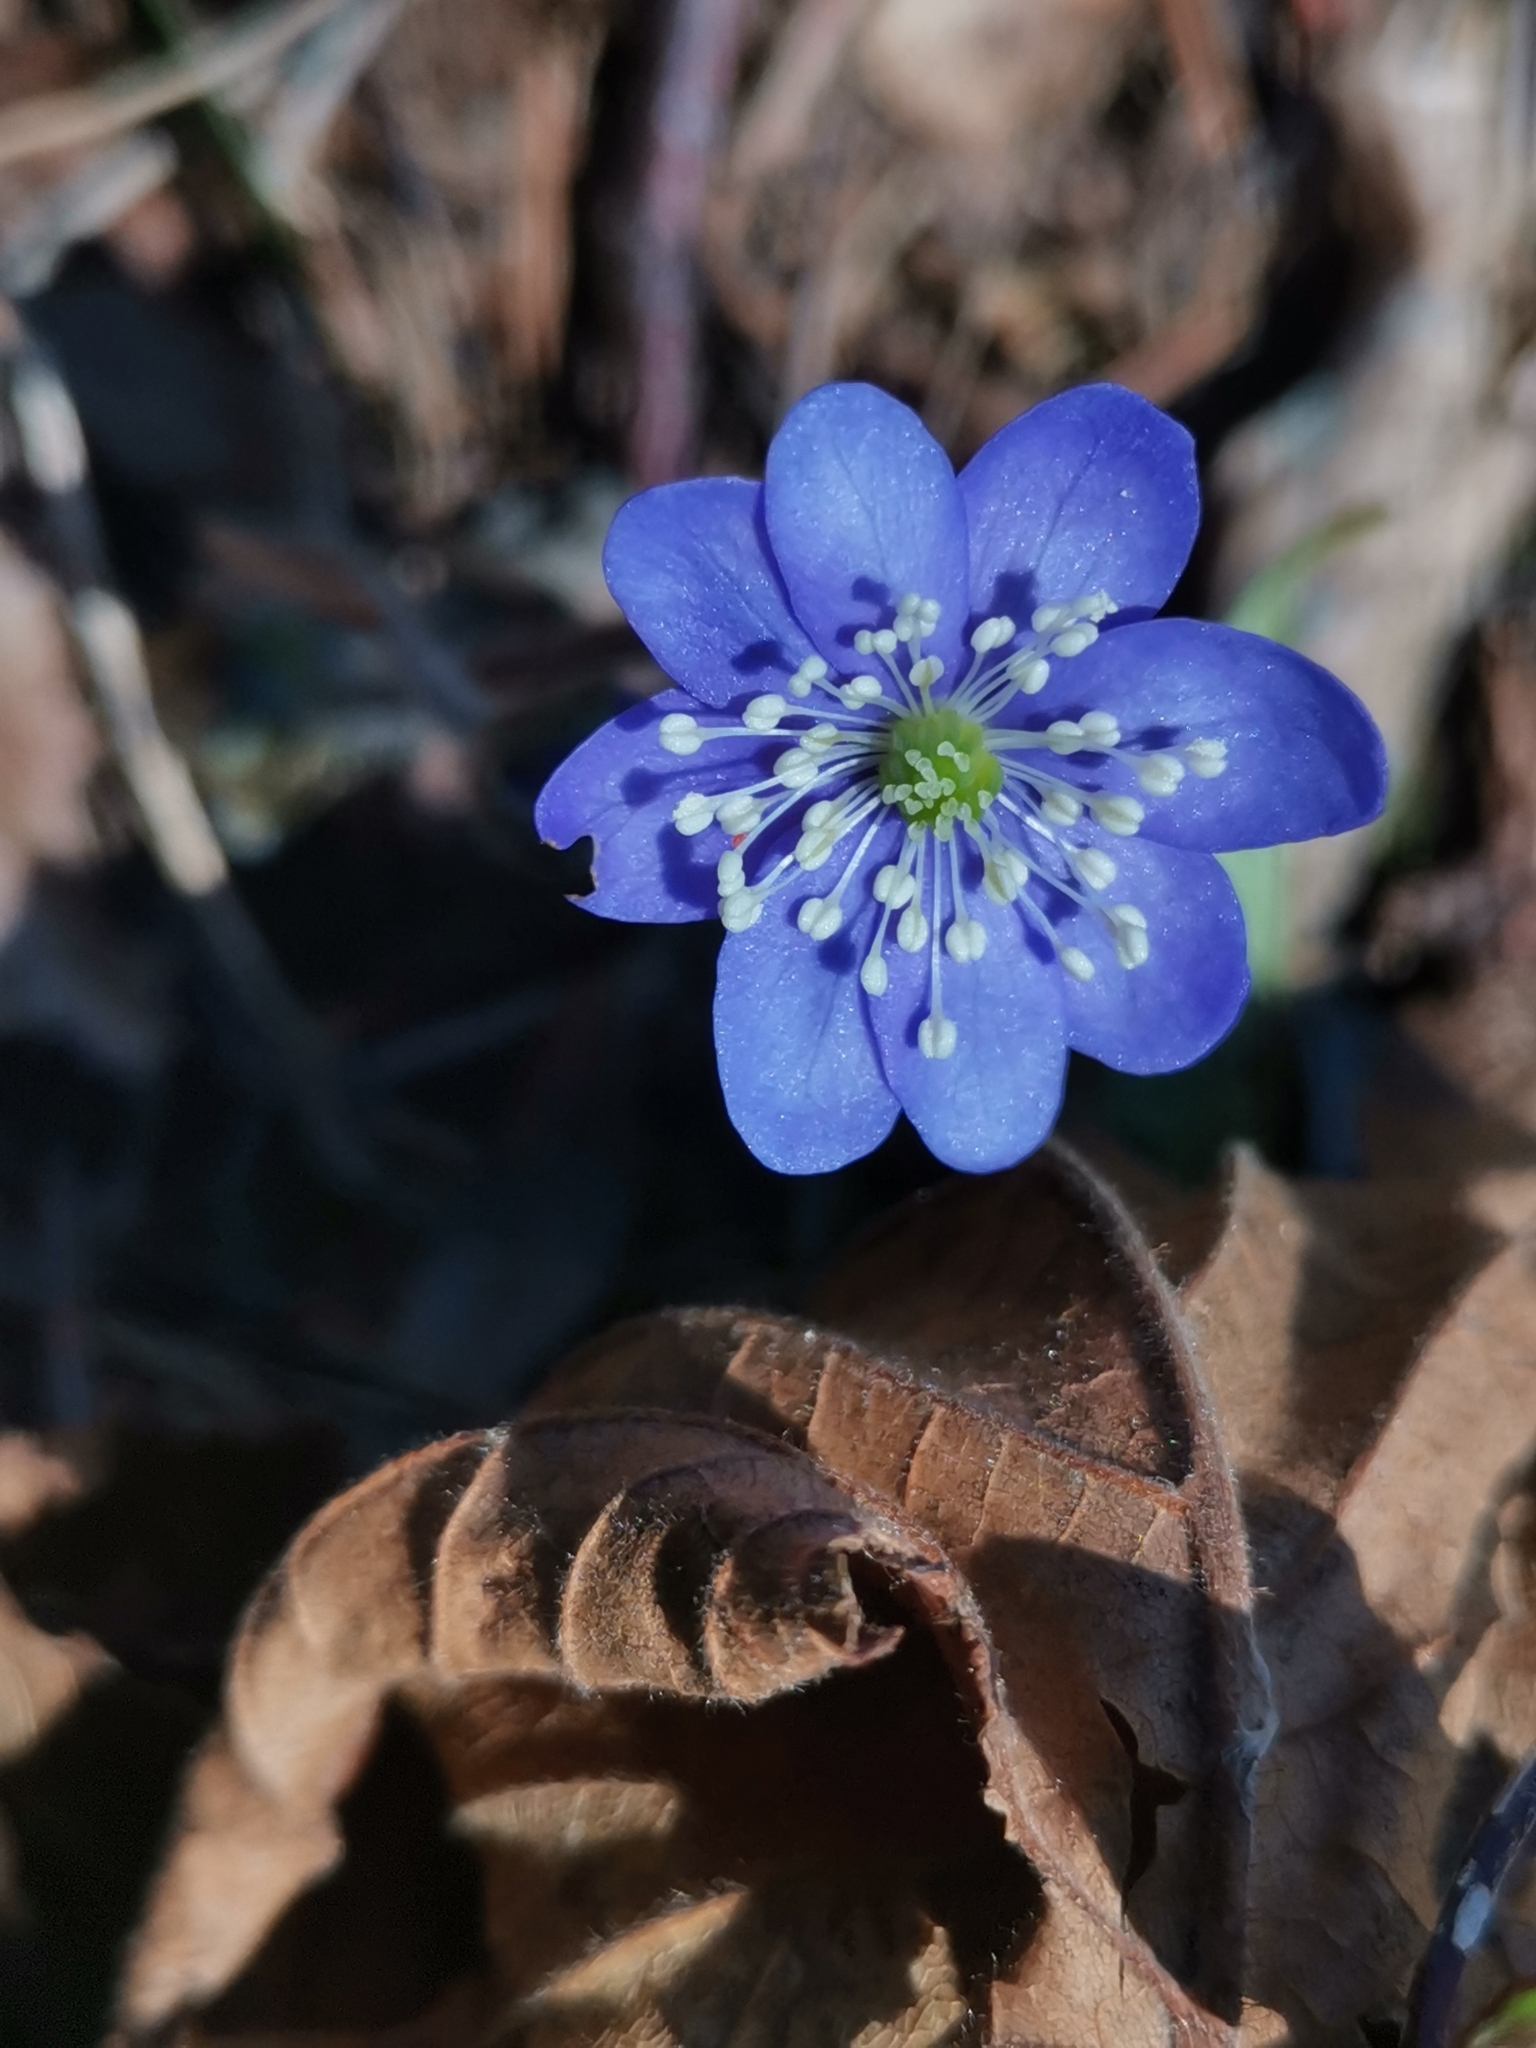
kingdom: Plantae
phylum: Tracheophyta
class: Magnoliopsida
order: Ranunculales
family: Ranunculaceae
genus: Hepatica
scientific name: Hepatica nobilis
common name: Liverleaf
